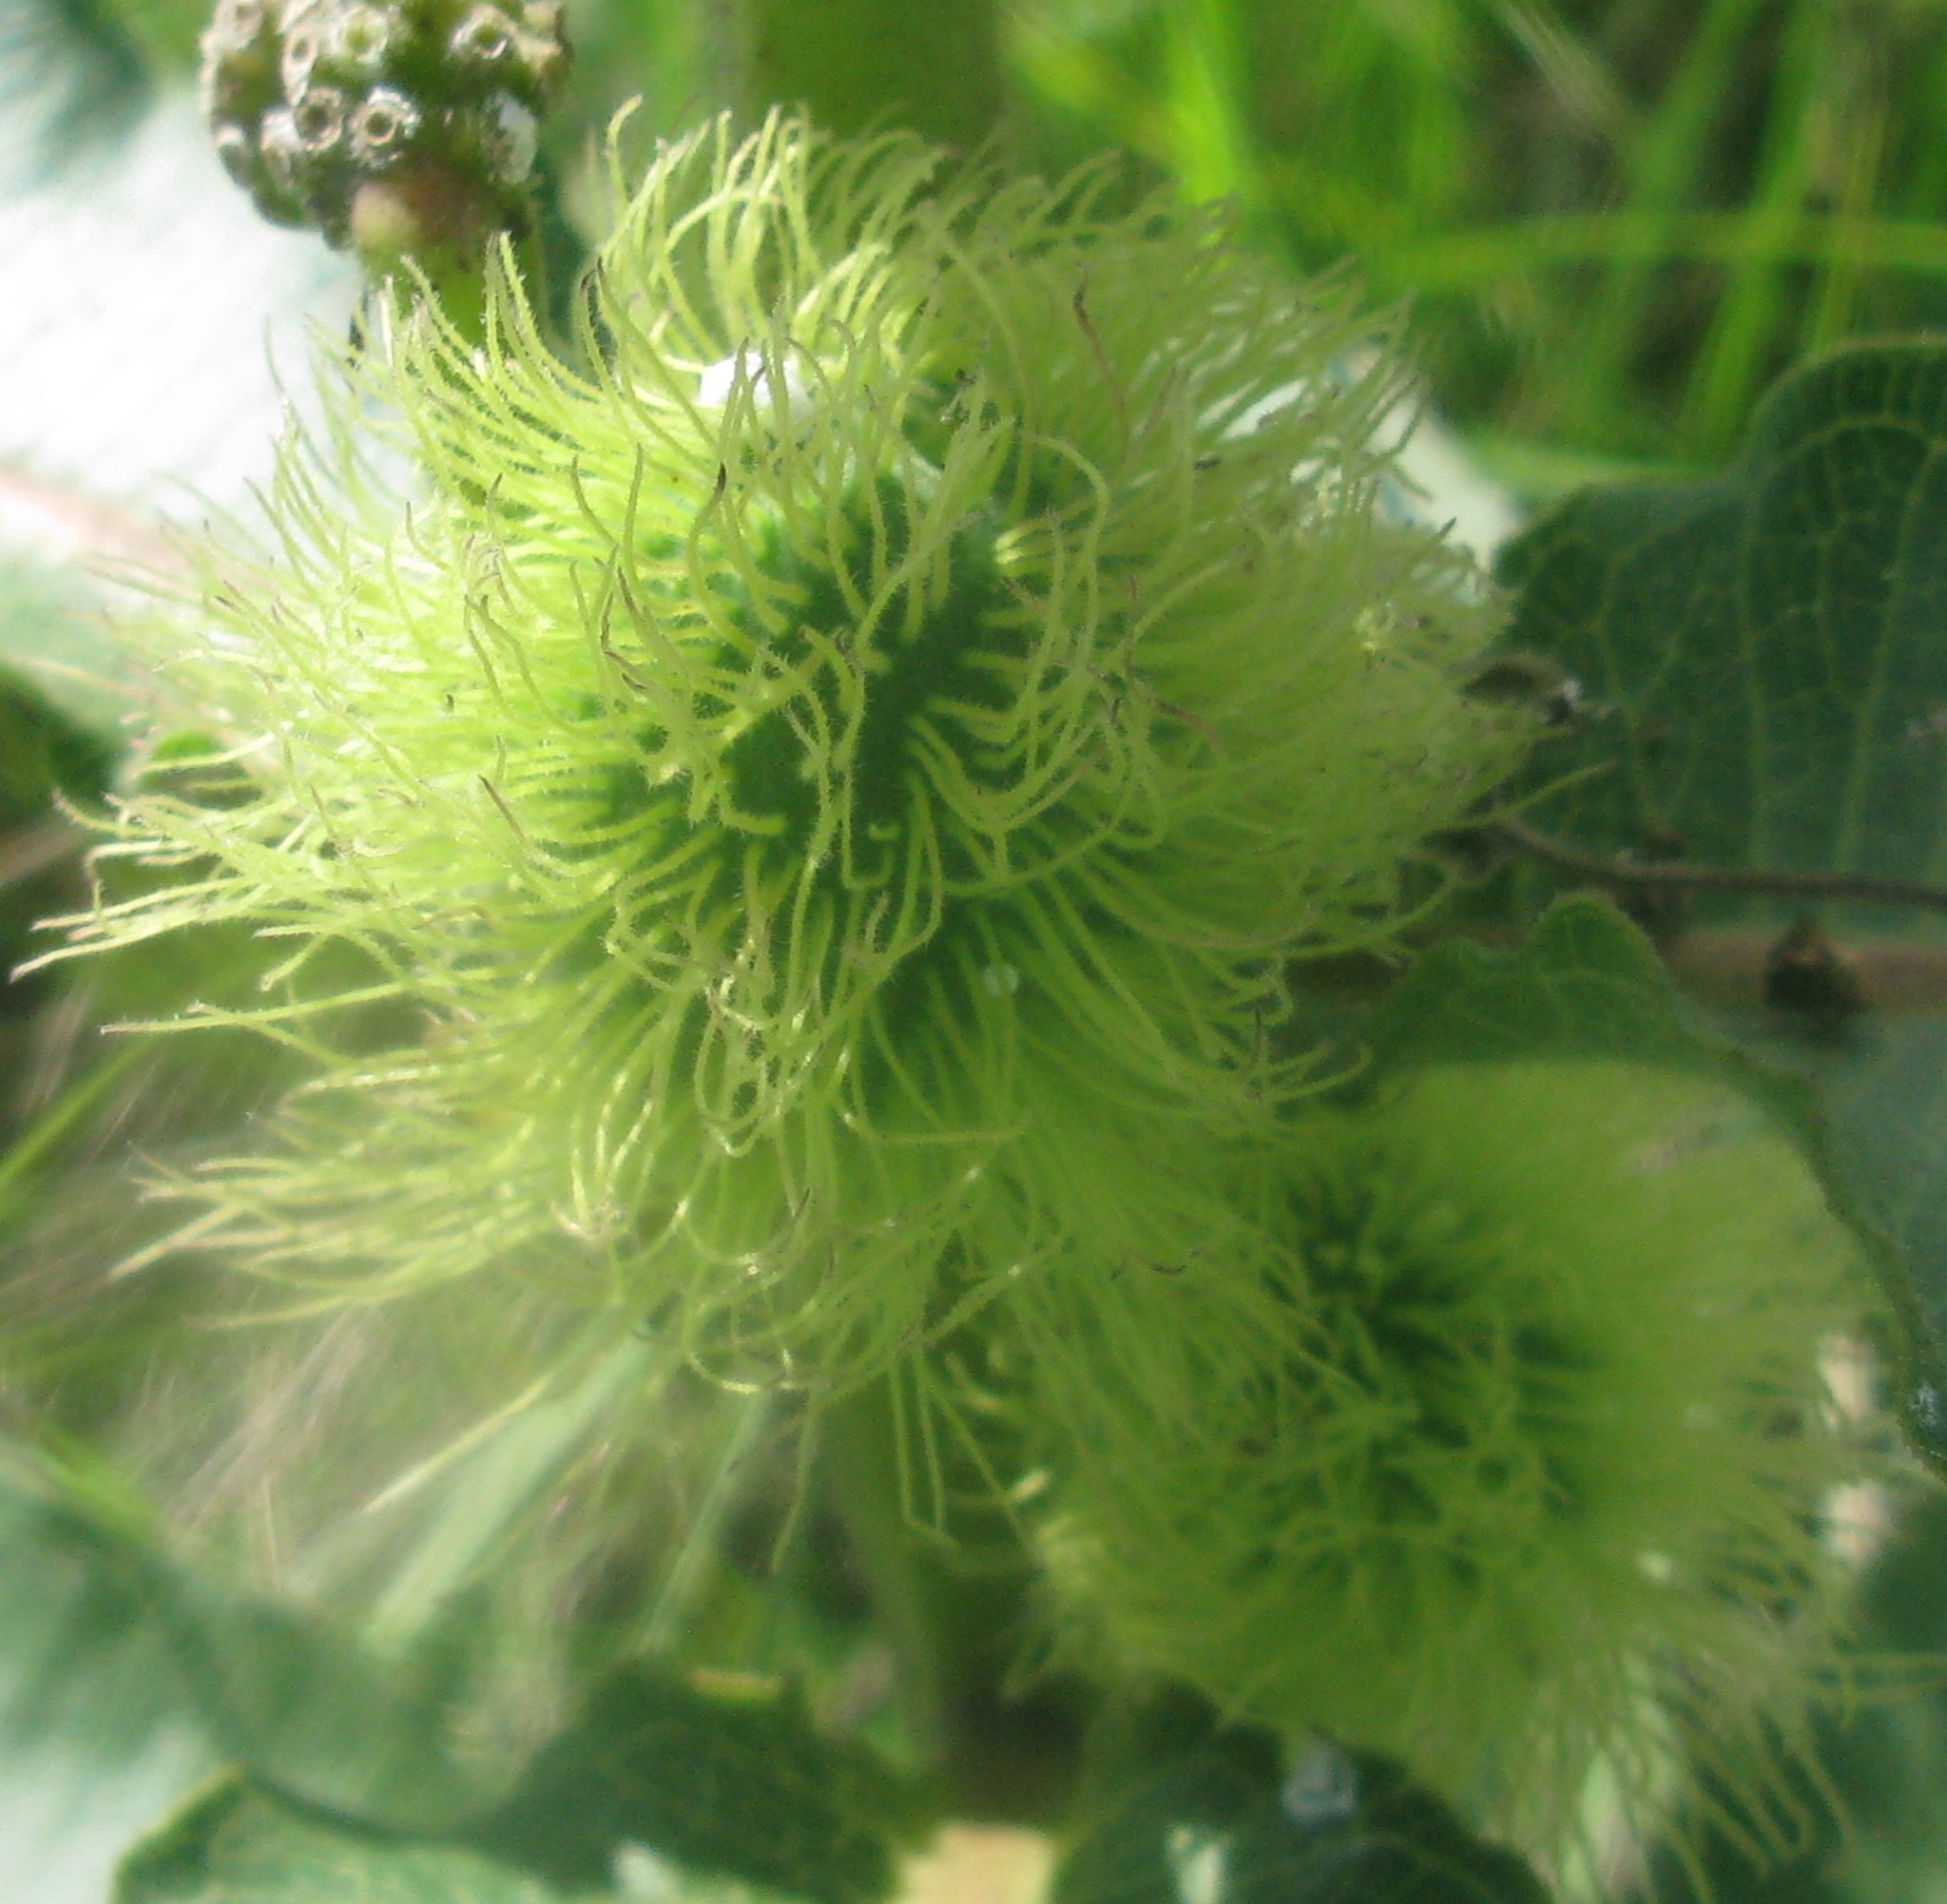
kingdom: Plantae
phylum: Tracheophyta
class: Magnoliopsida
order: Sapindales
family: Sapindaceae
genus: Nephelium
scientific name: Nephelium lappaceum
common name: Rambutan
